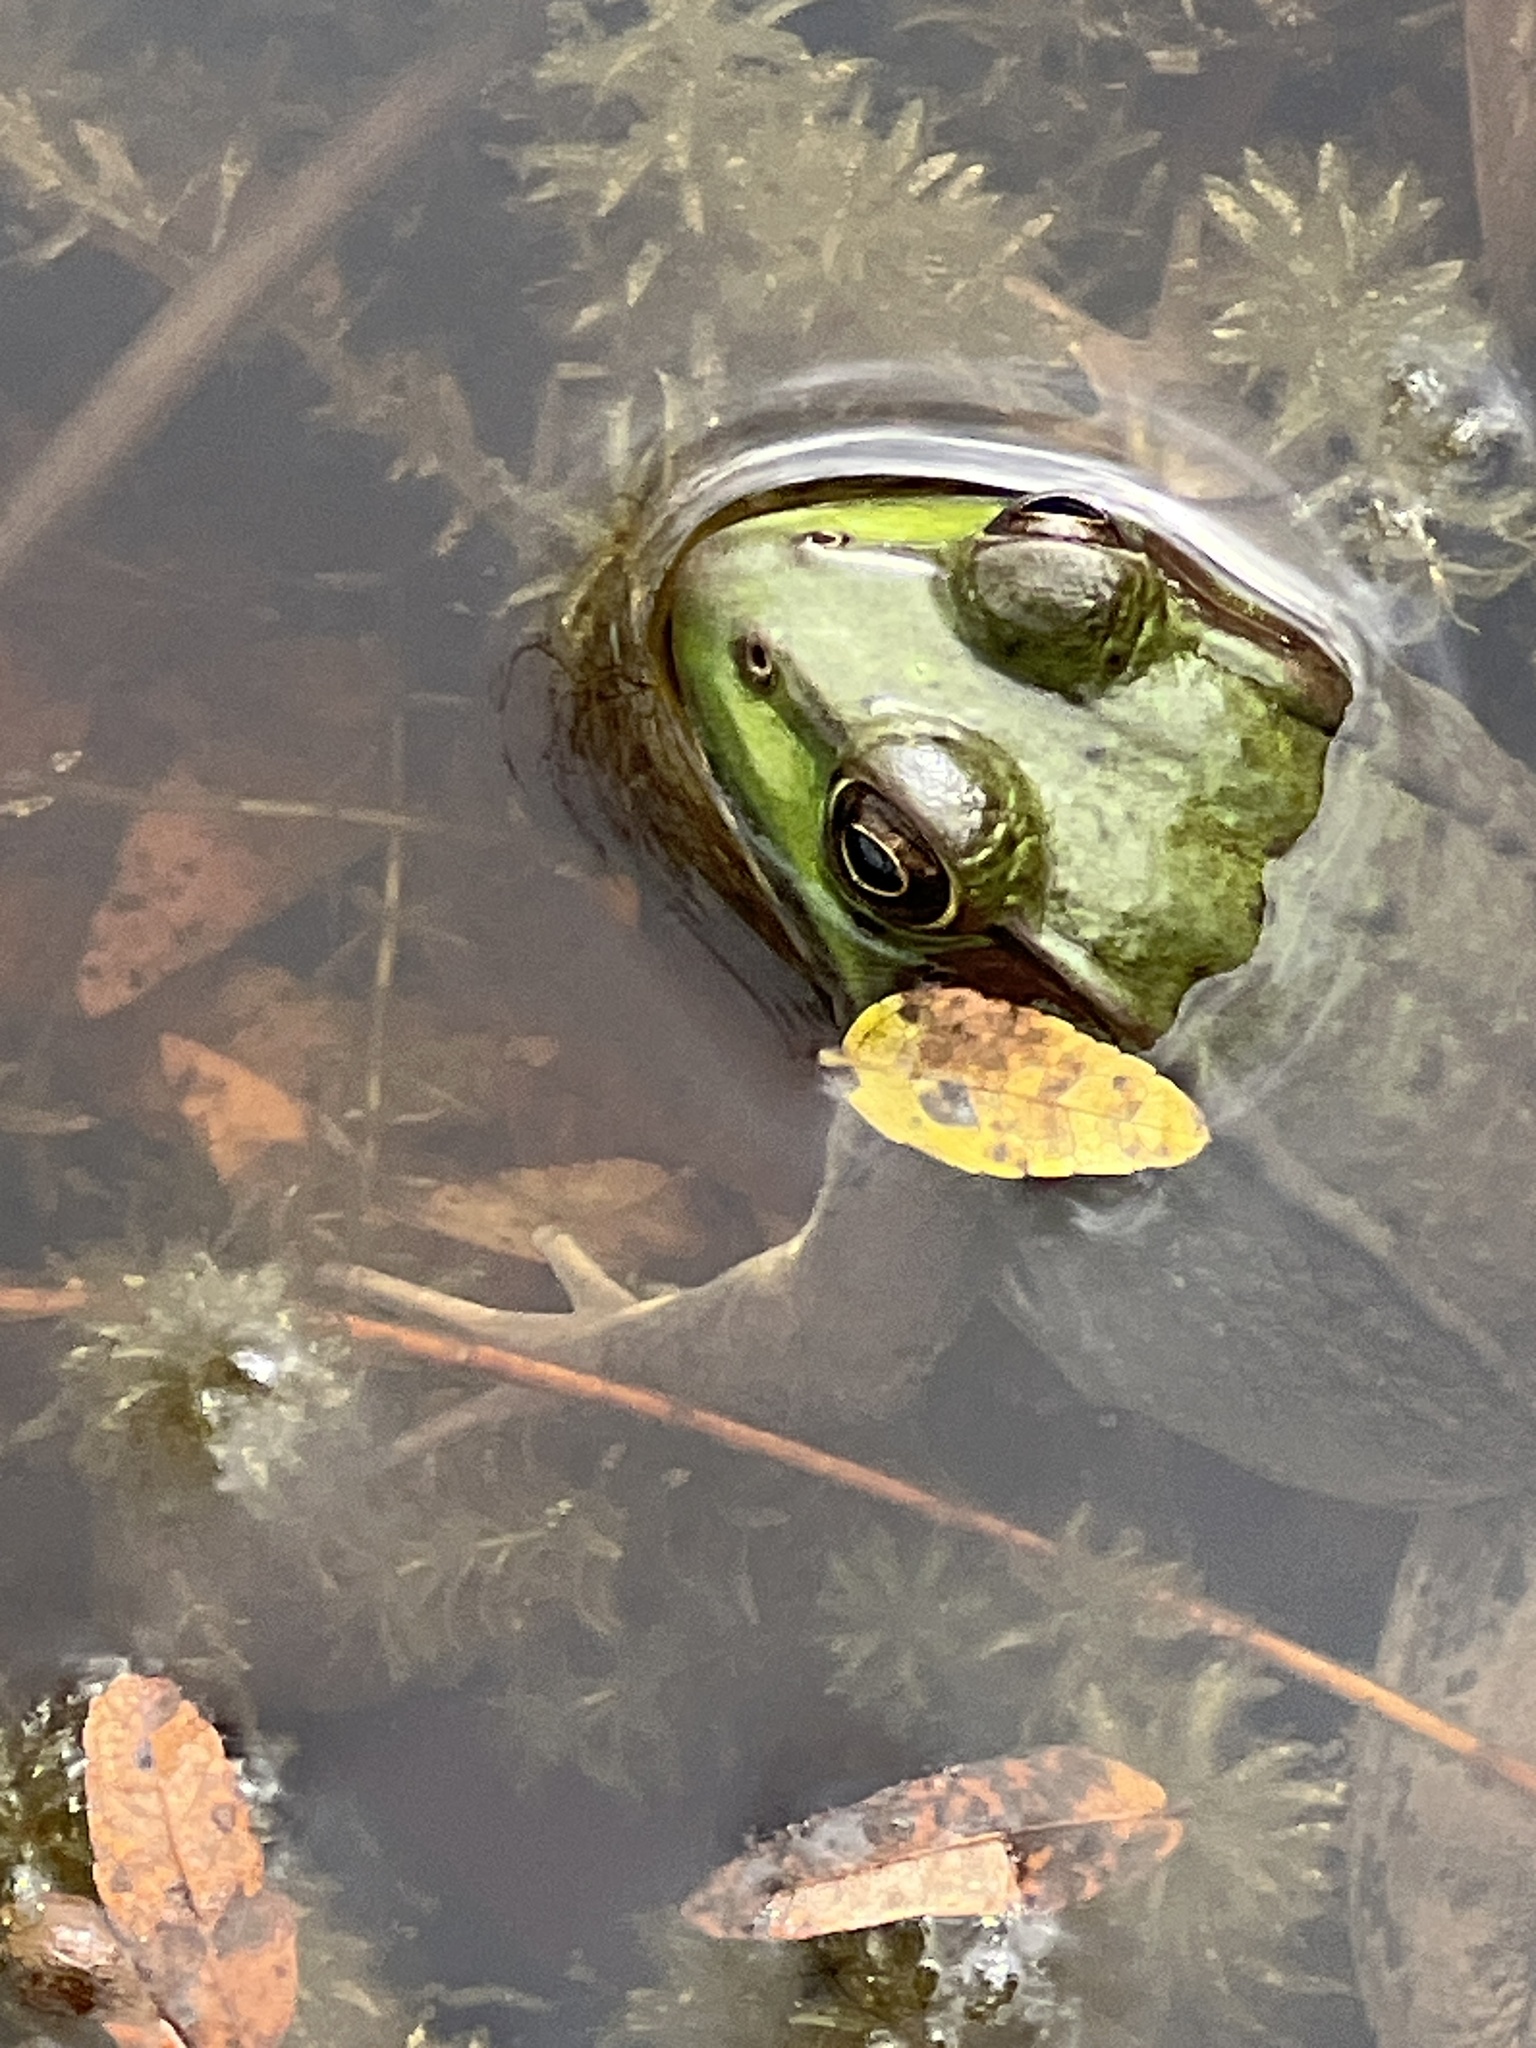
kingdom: Animalia
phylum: Chordata
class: Amphibia
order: Anura
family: Ranidae
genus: Lithobates
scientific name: Lithobates clamitans
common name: Green frog
